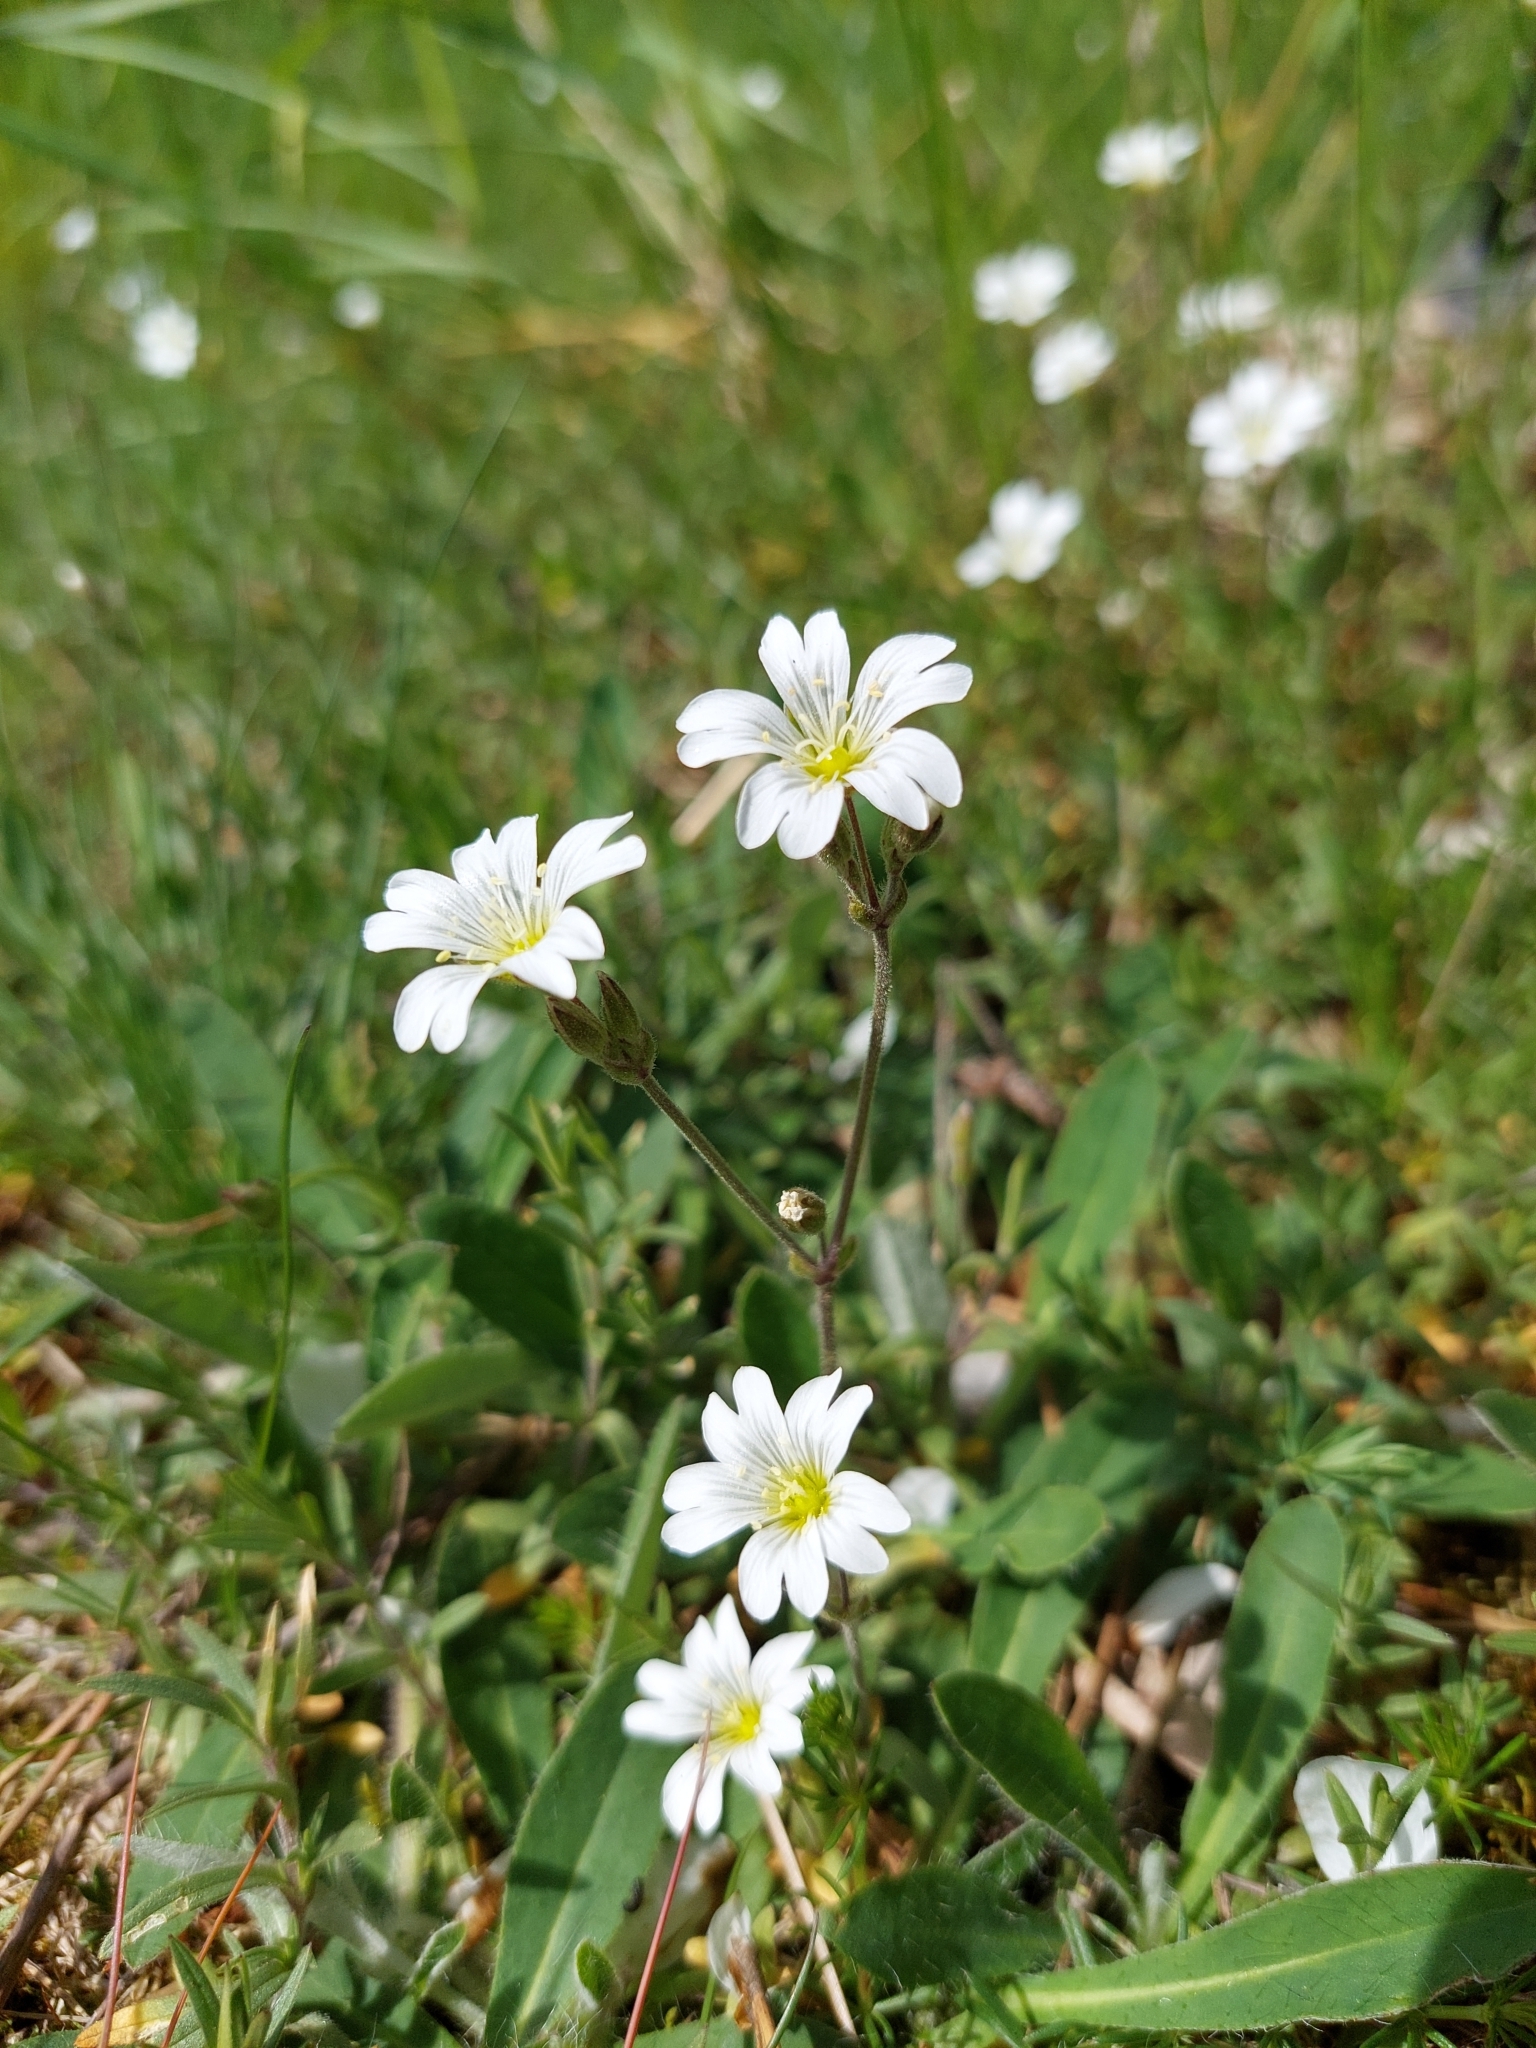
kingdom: Plantae
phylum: Tracheophyta
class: Magnoliopsida
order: Caryophyllales
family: Caryophyllaceae
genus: Cerastium
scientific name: Cerastium arvense
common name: Field mouse-ear
